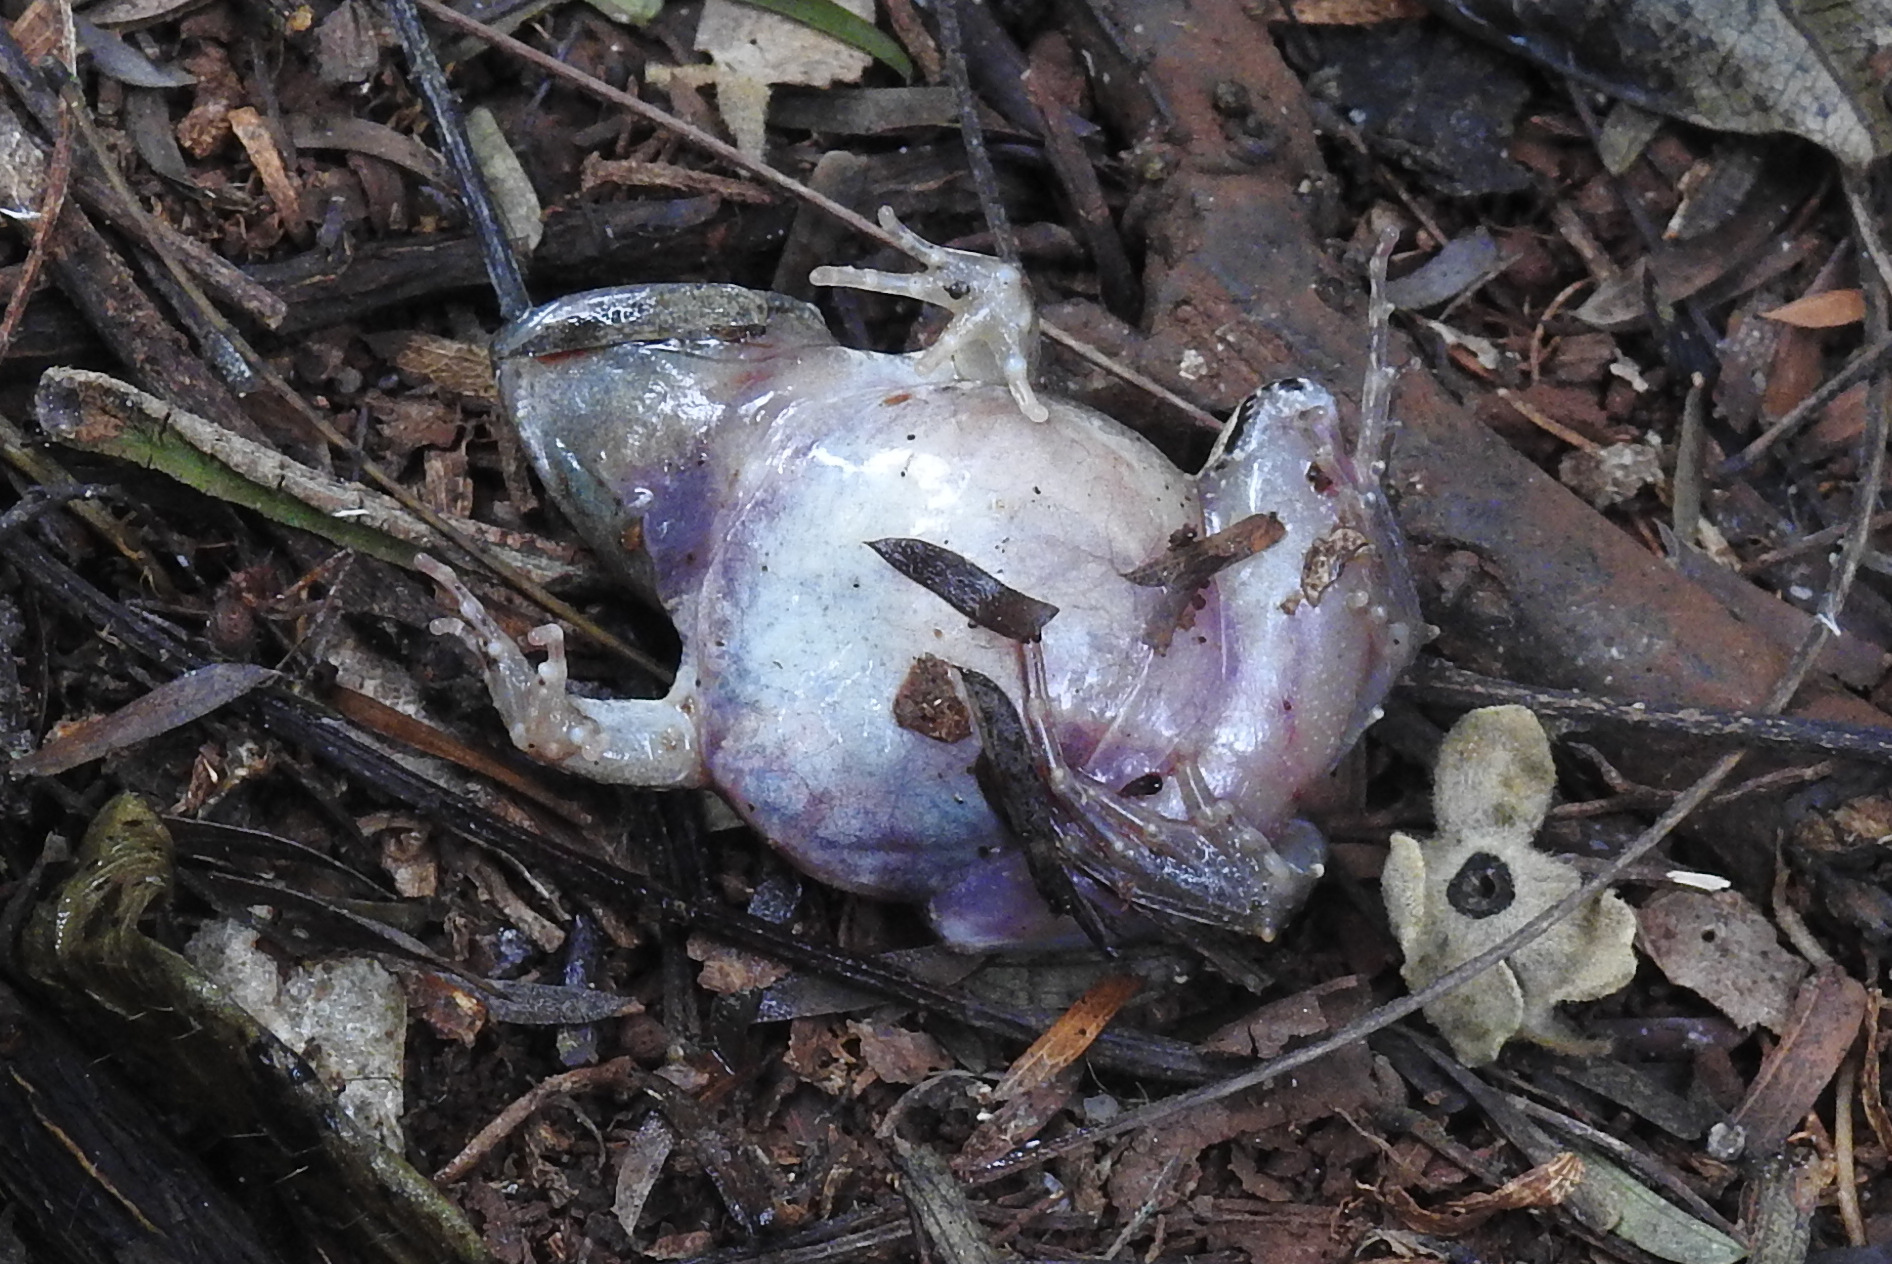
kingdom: Animalia
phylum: Chordata
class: Amphibia
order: Anura
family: Leptodactylidae
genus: Physalaemus
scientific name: Physalaemus cuvieri
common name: Barker frog
